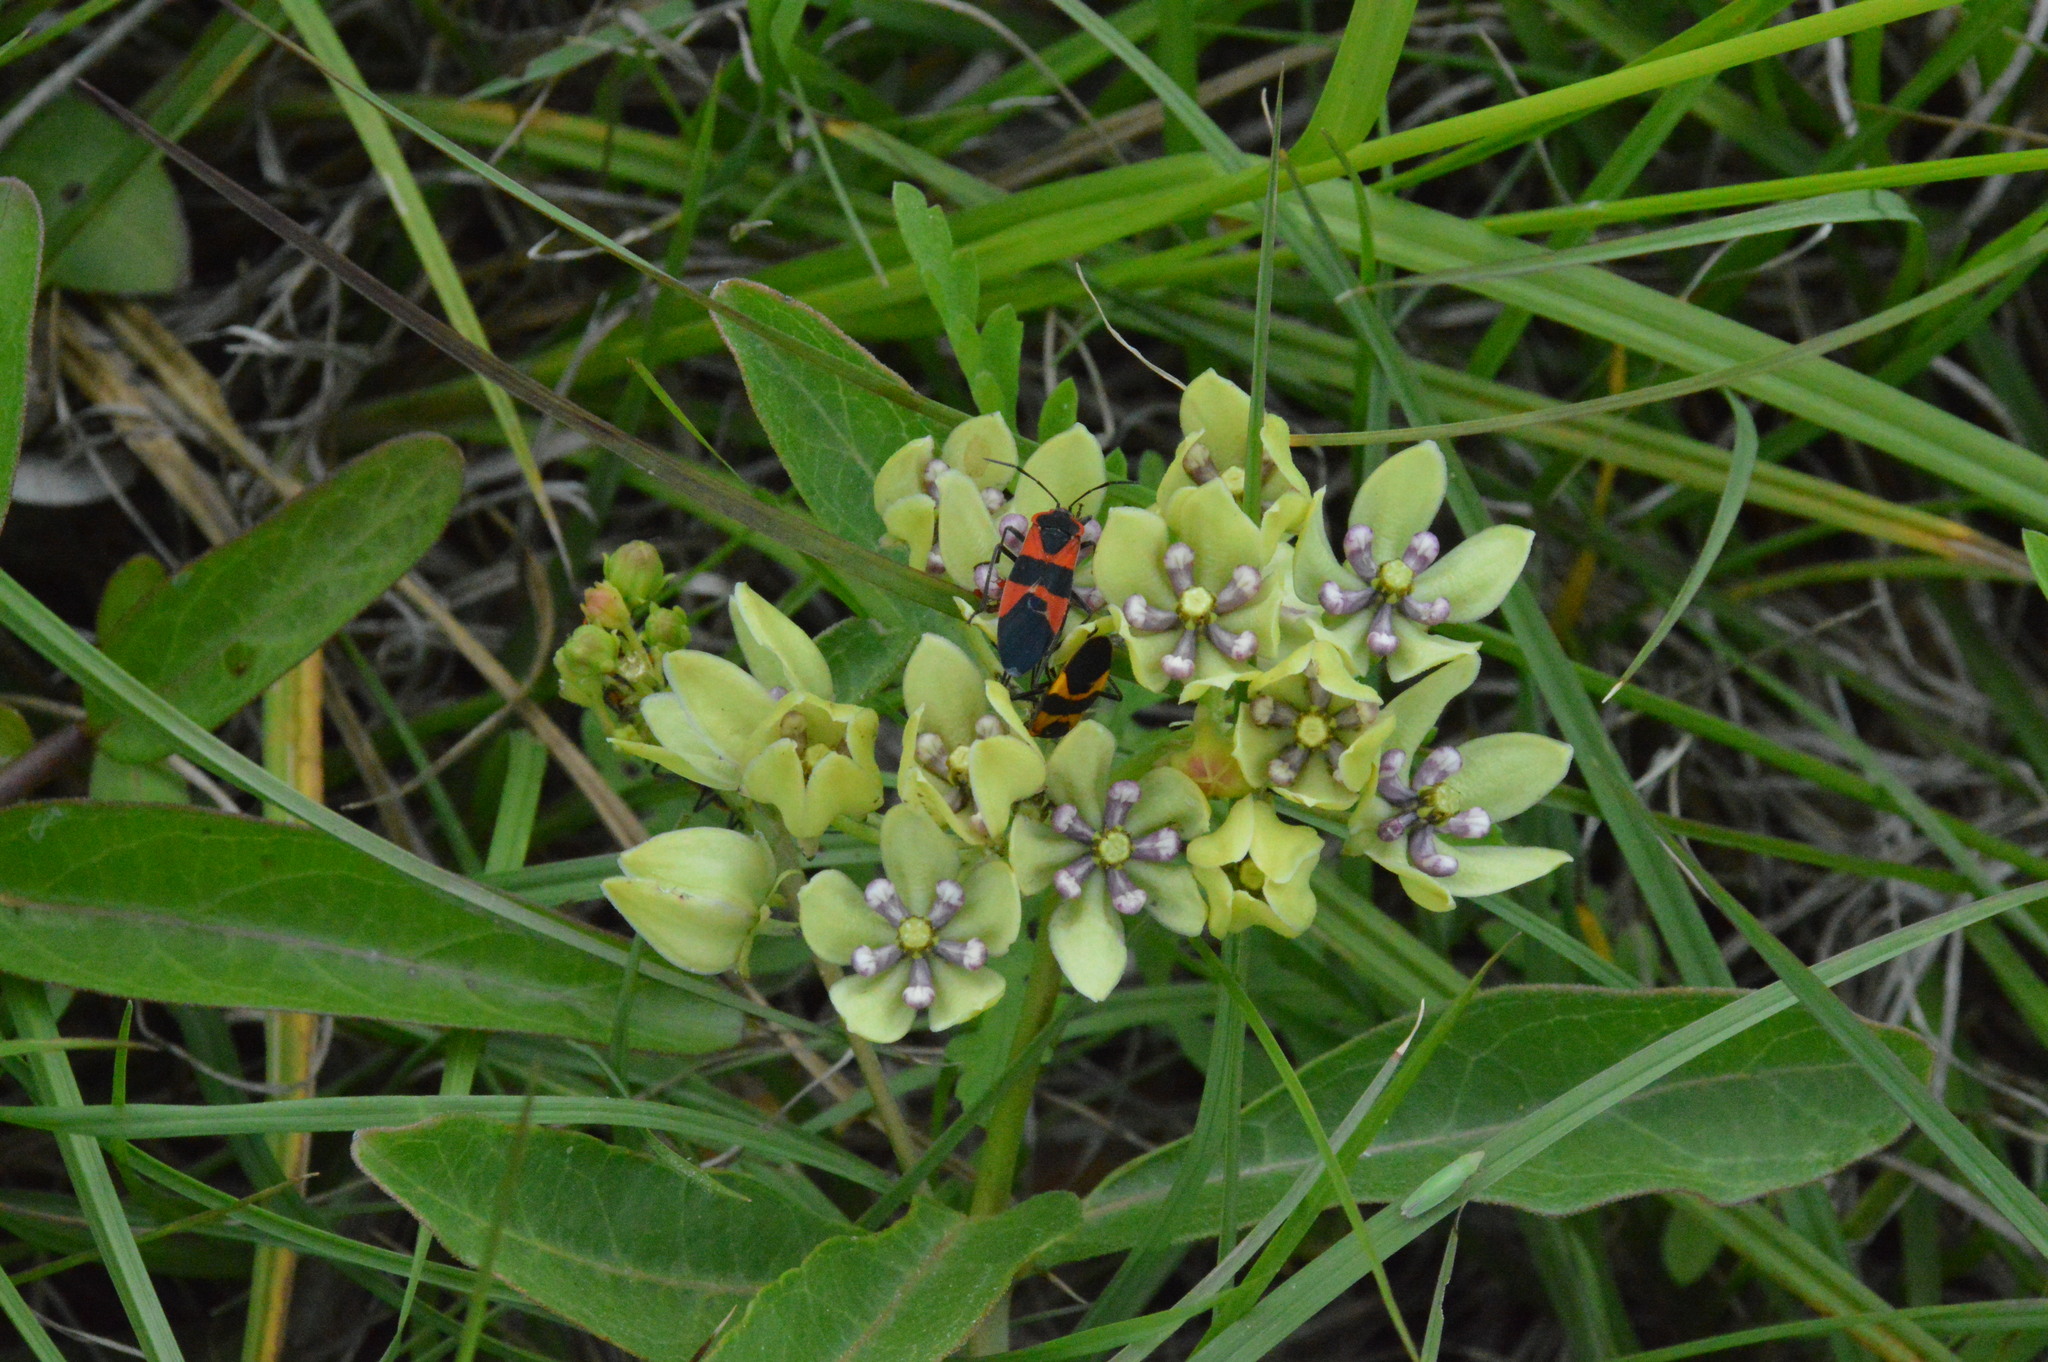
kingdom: Plantae
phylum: Tracheophyta
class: Magnoliopsida
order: Gentianales
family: Apocynaceae
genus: Asclepias
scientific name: Asclepias viridis
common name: Antelope-horns
